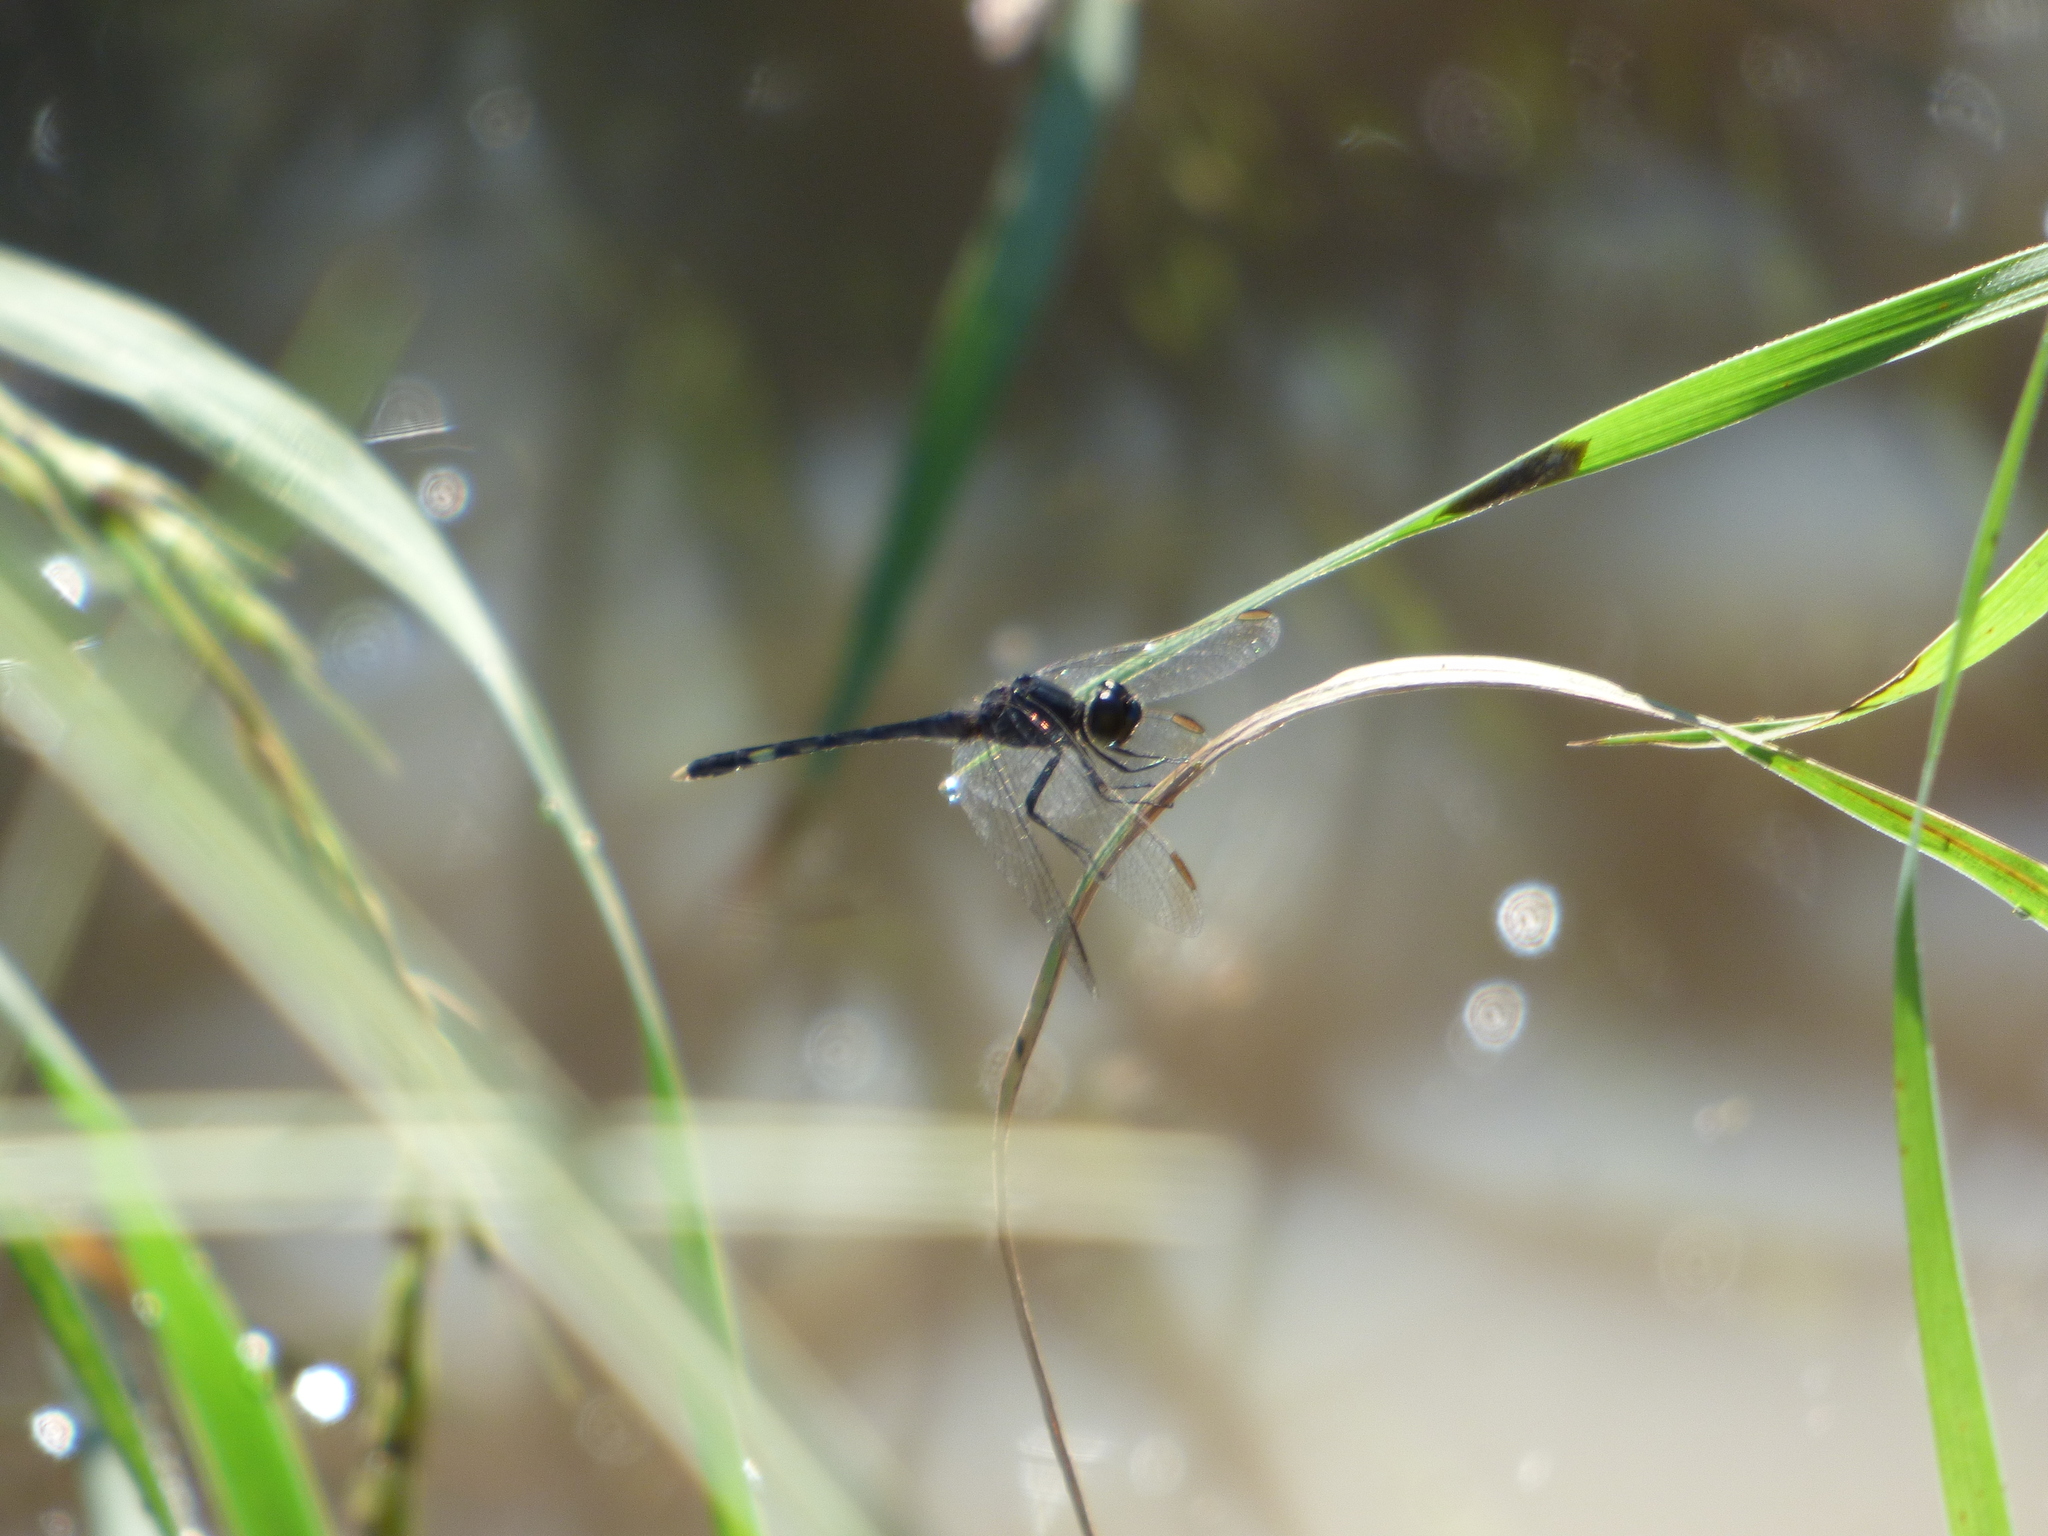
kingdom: Animalia
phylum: Arthropoda
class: Insecta
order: Odonata
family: Libellulidae
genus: Erythrodiplax
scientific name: Erythrodiplax nigricans
